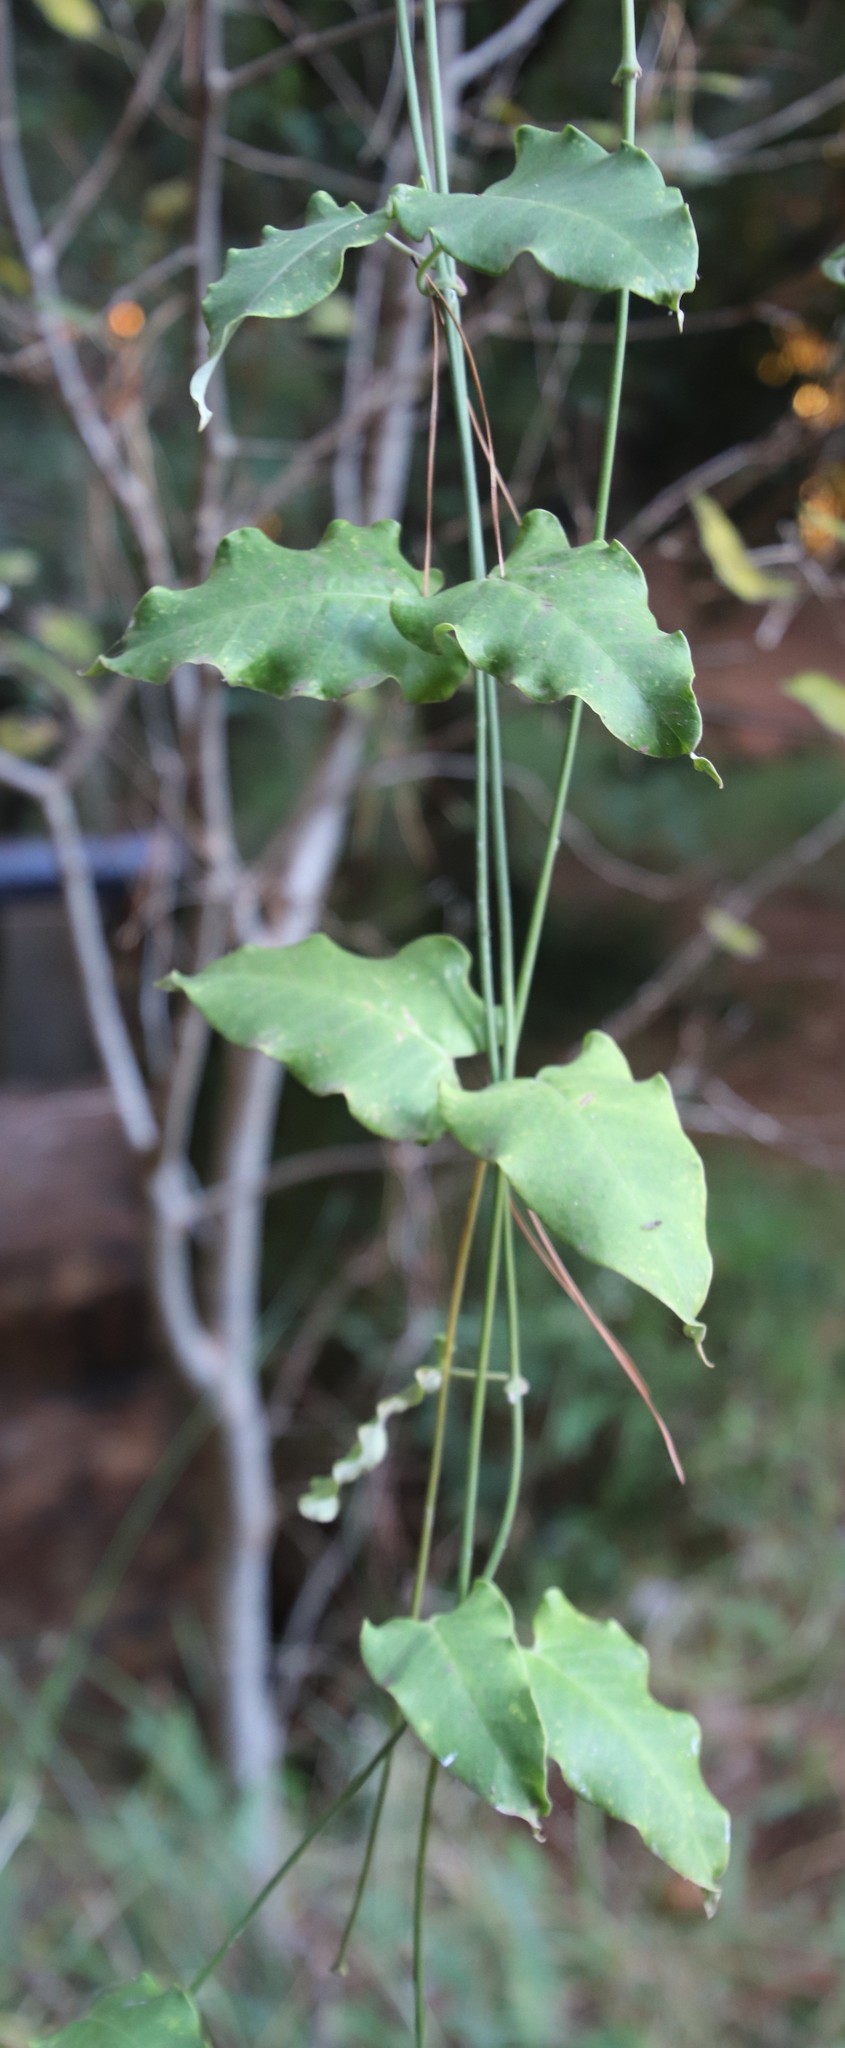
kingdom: Plantae
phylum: Tracheophyta
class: Magnoliopsida
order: Gentianales
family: Apocynaceae
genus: Araujia
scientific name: Araujia sericifera
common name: White bladderflower
